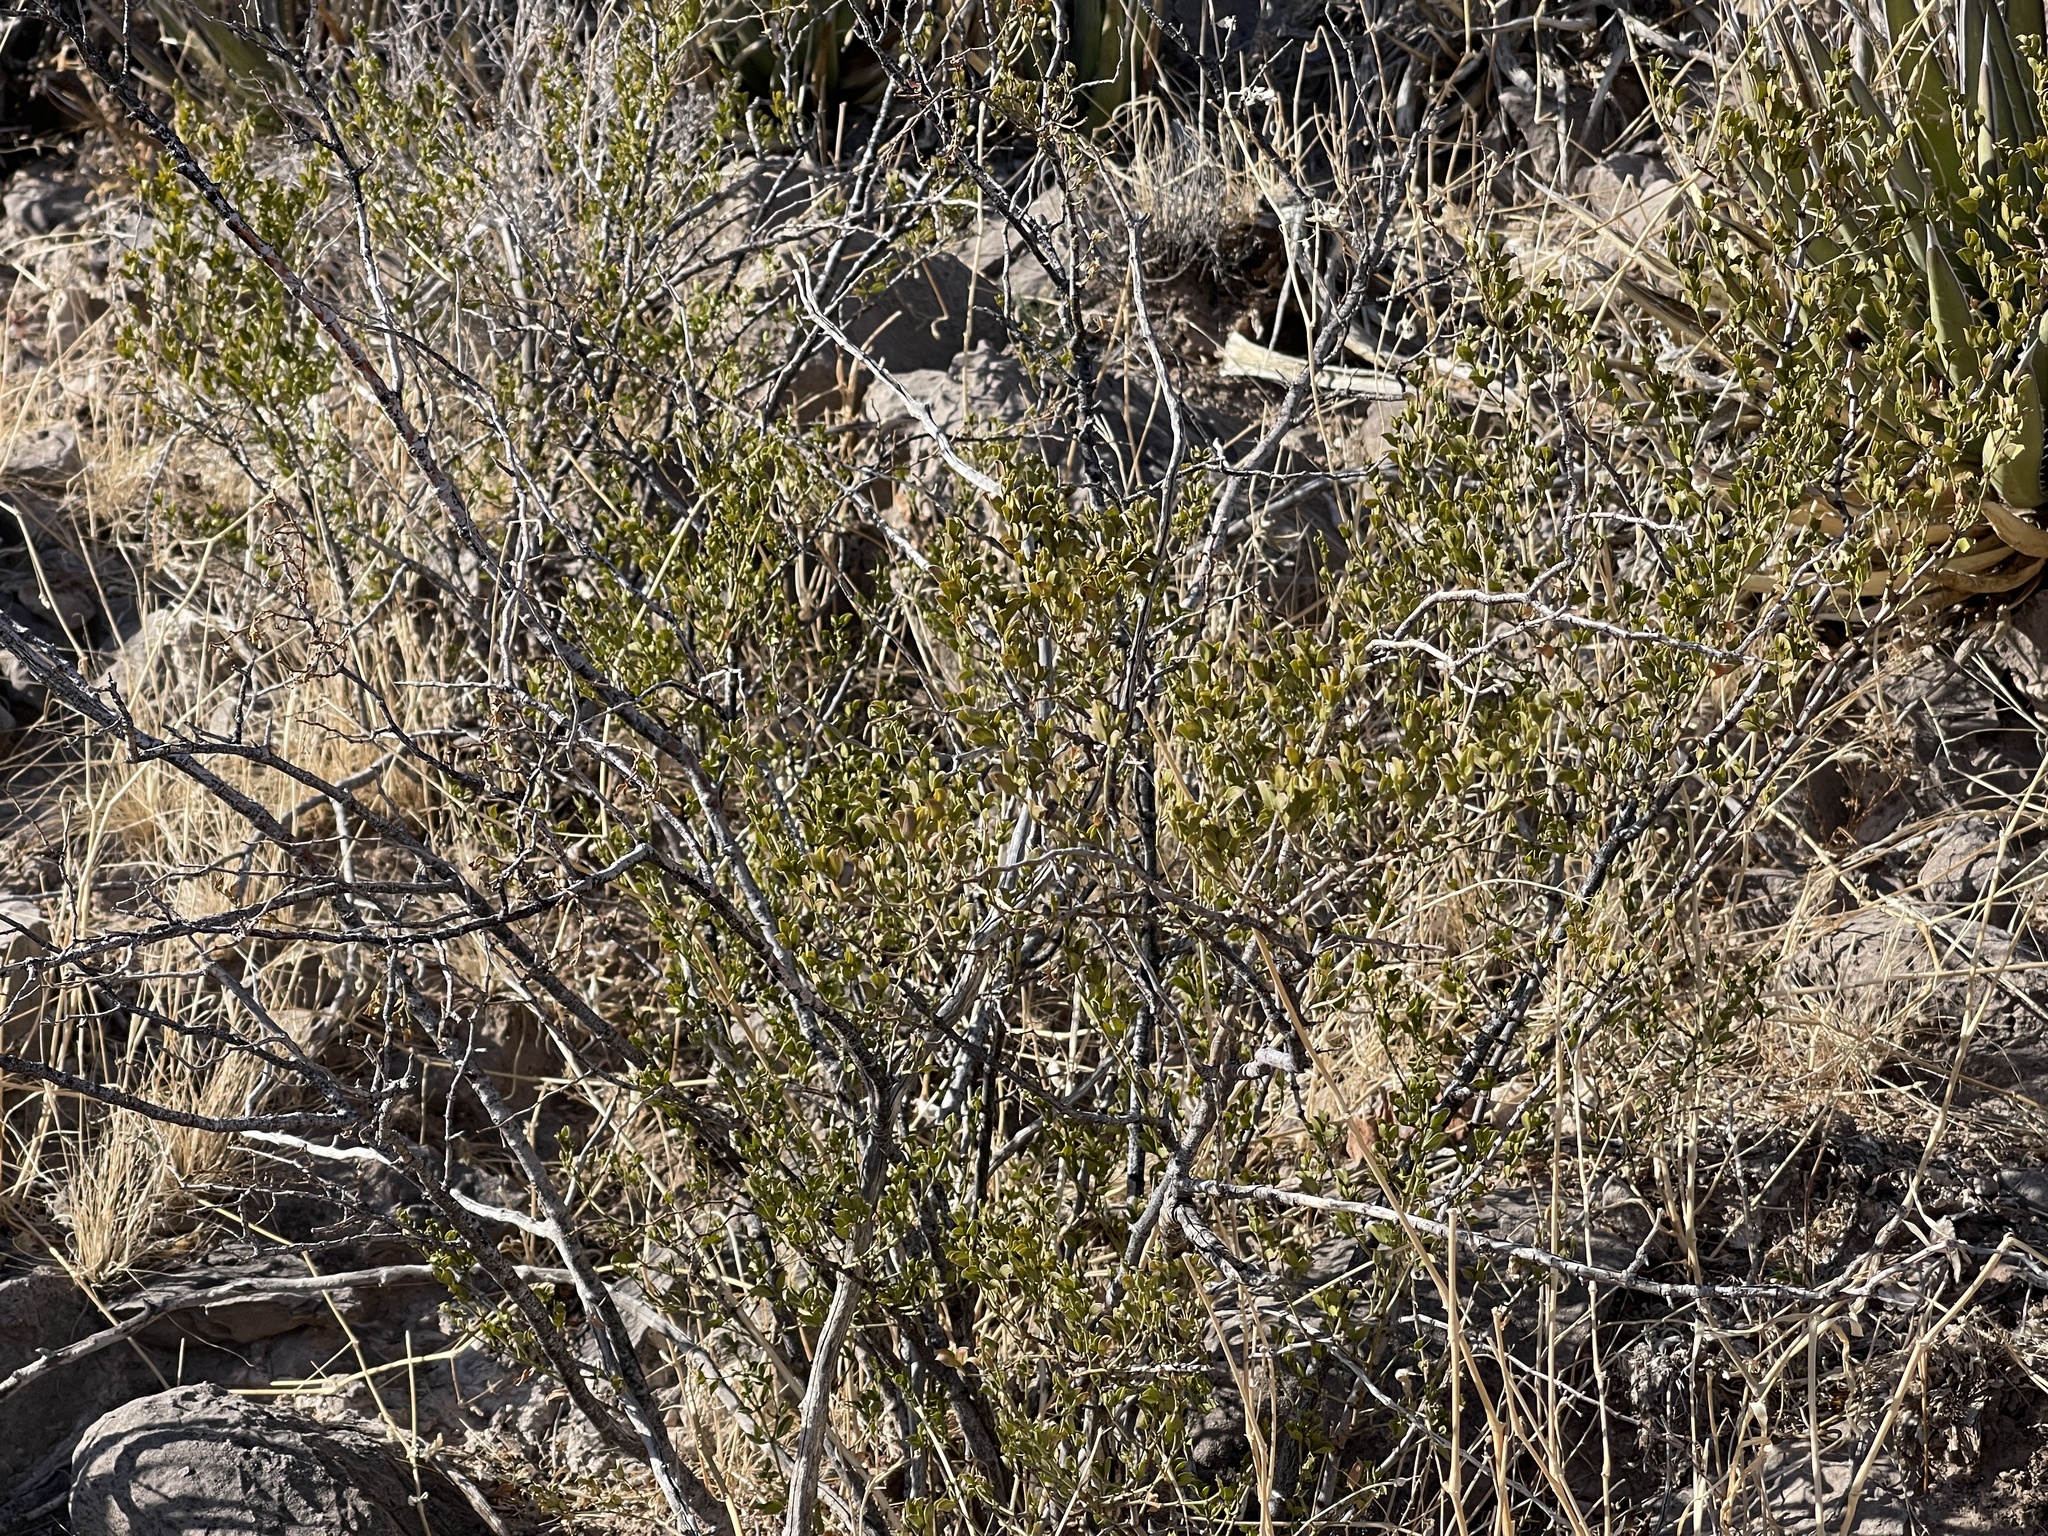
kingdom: Plantae
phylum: Tracheophyta
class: Magnoliopsida
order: Zygophyllales
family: Zygophyllaceae
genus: Larrea
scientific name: Larrea tridentata
